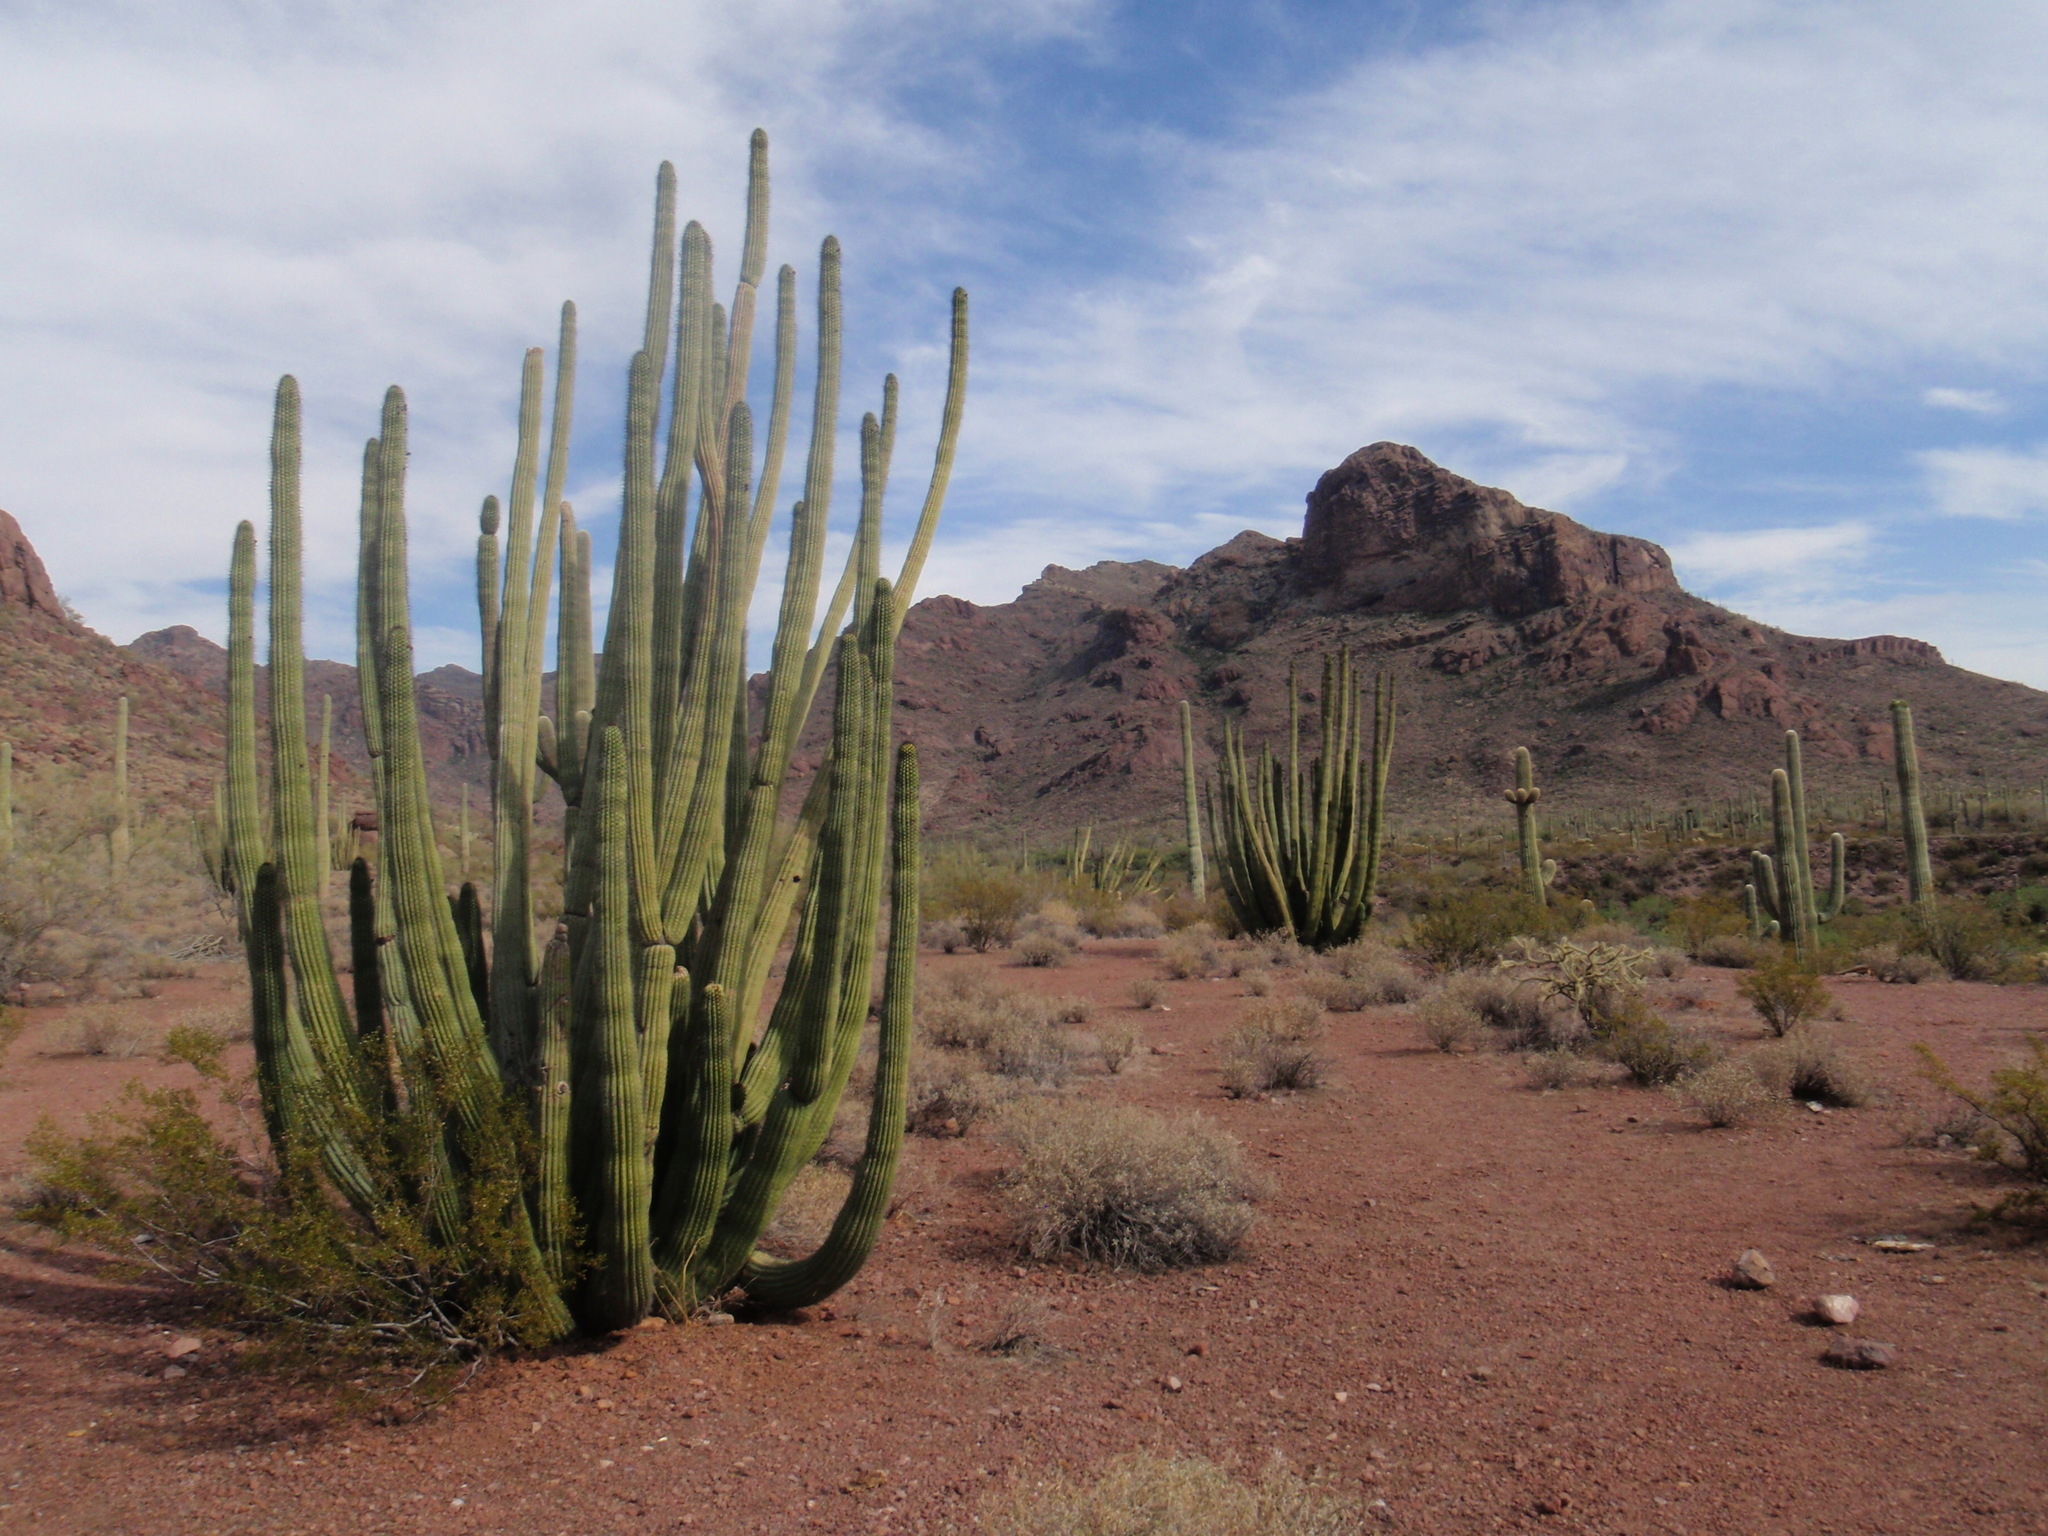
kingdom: Plantae
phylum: Tracheophyta
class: Magnoliopsida
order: Caryophyllales
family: Cactaceae
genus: Stenocereus
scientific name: Stenocereus thurberi
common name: Organ pipe cactus
